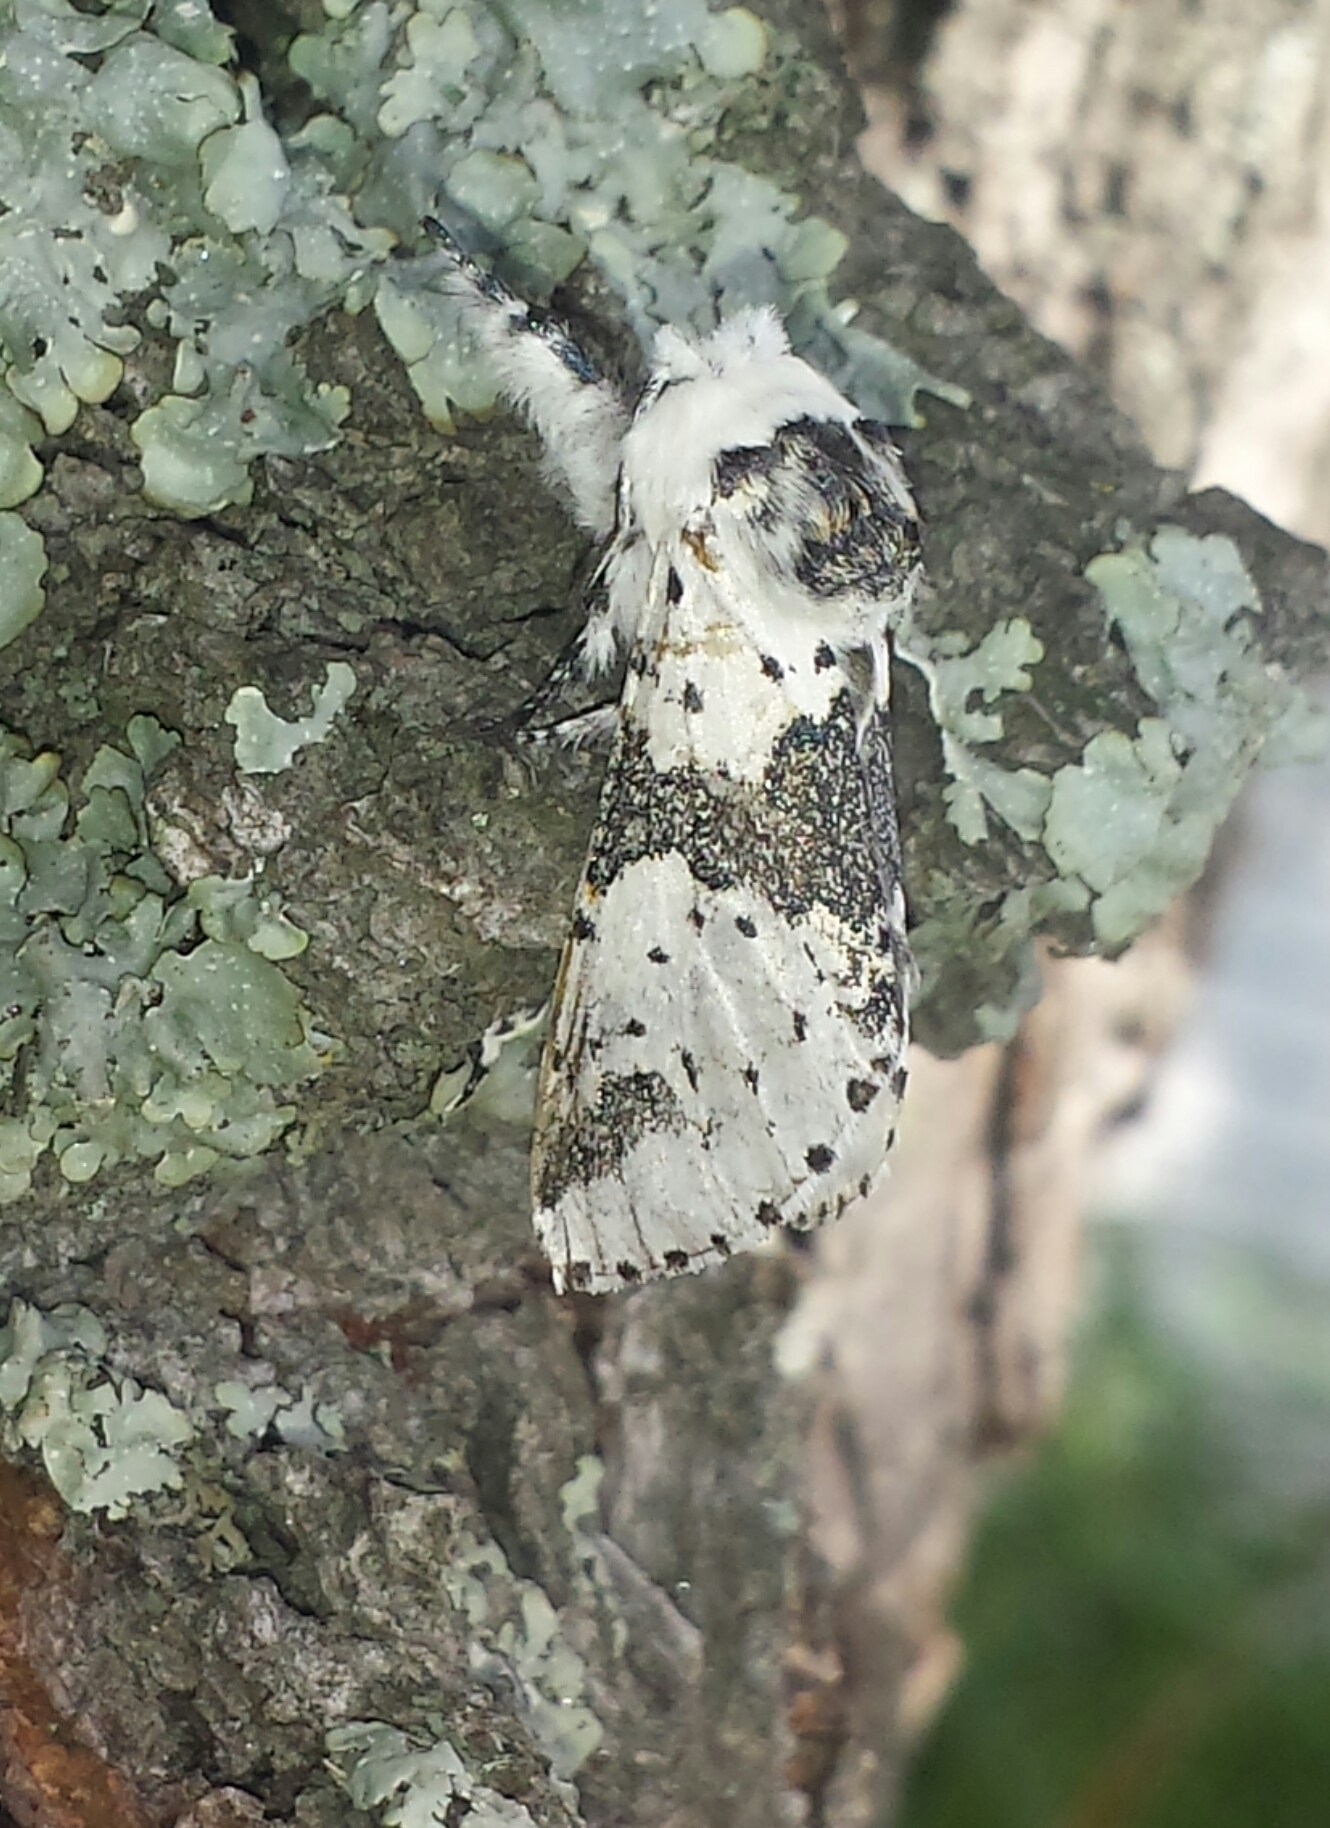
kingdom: Animalia
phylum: Arthropoda
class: Insecta
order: Lepidoptera
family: Notodontidae
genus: Furcula
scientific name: Furcula borealis
